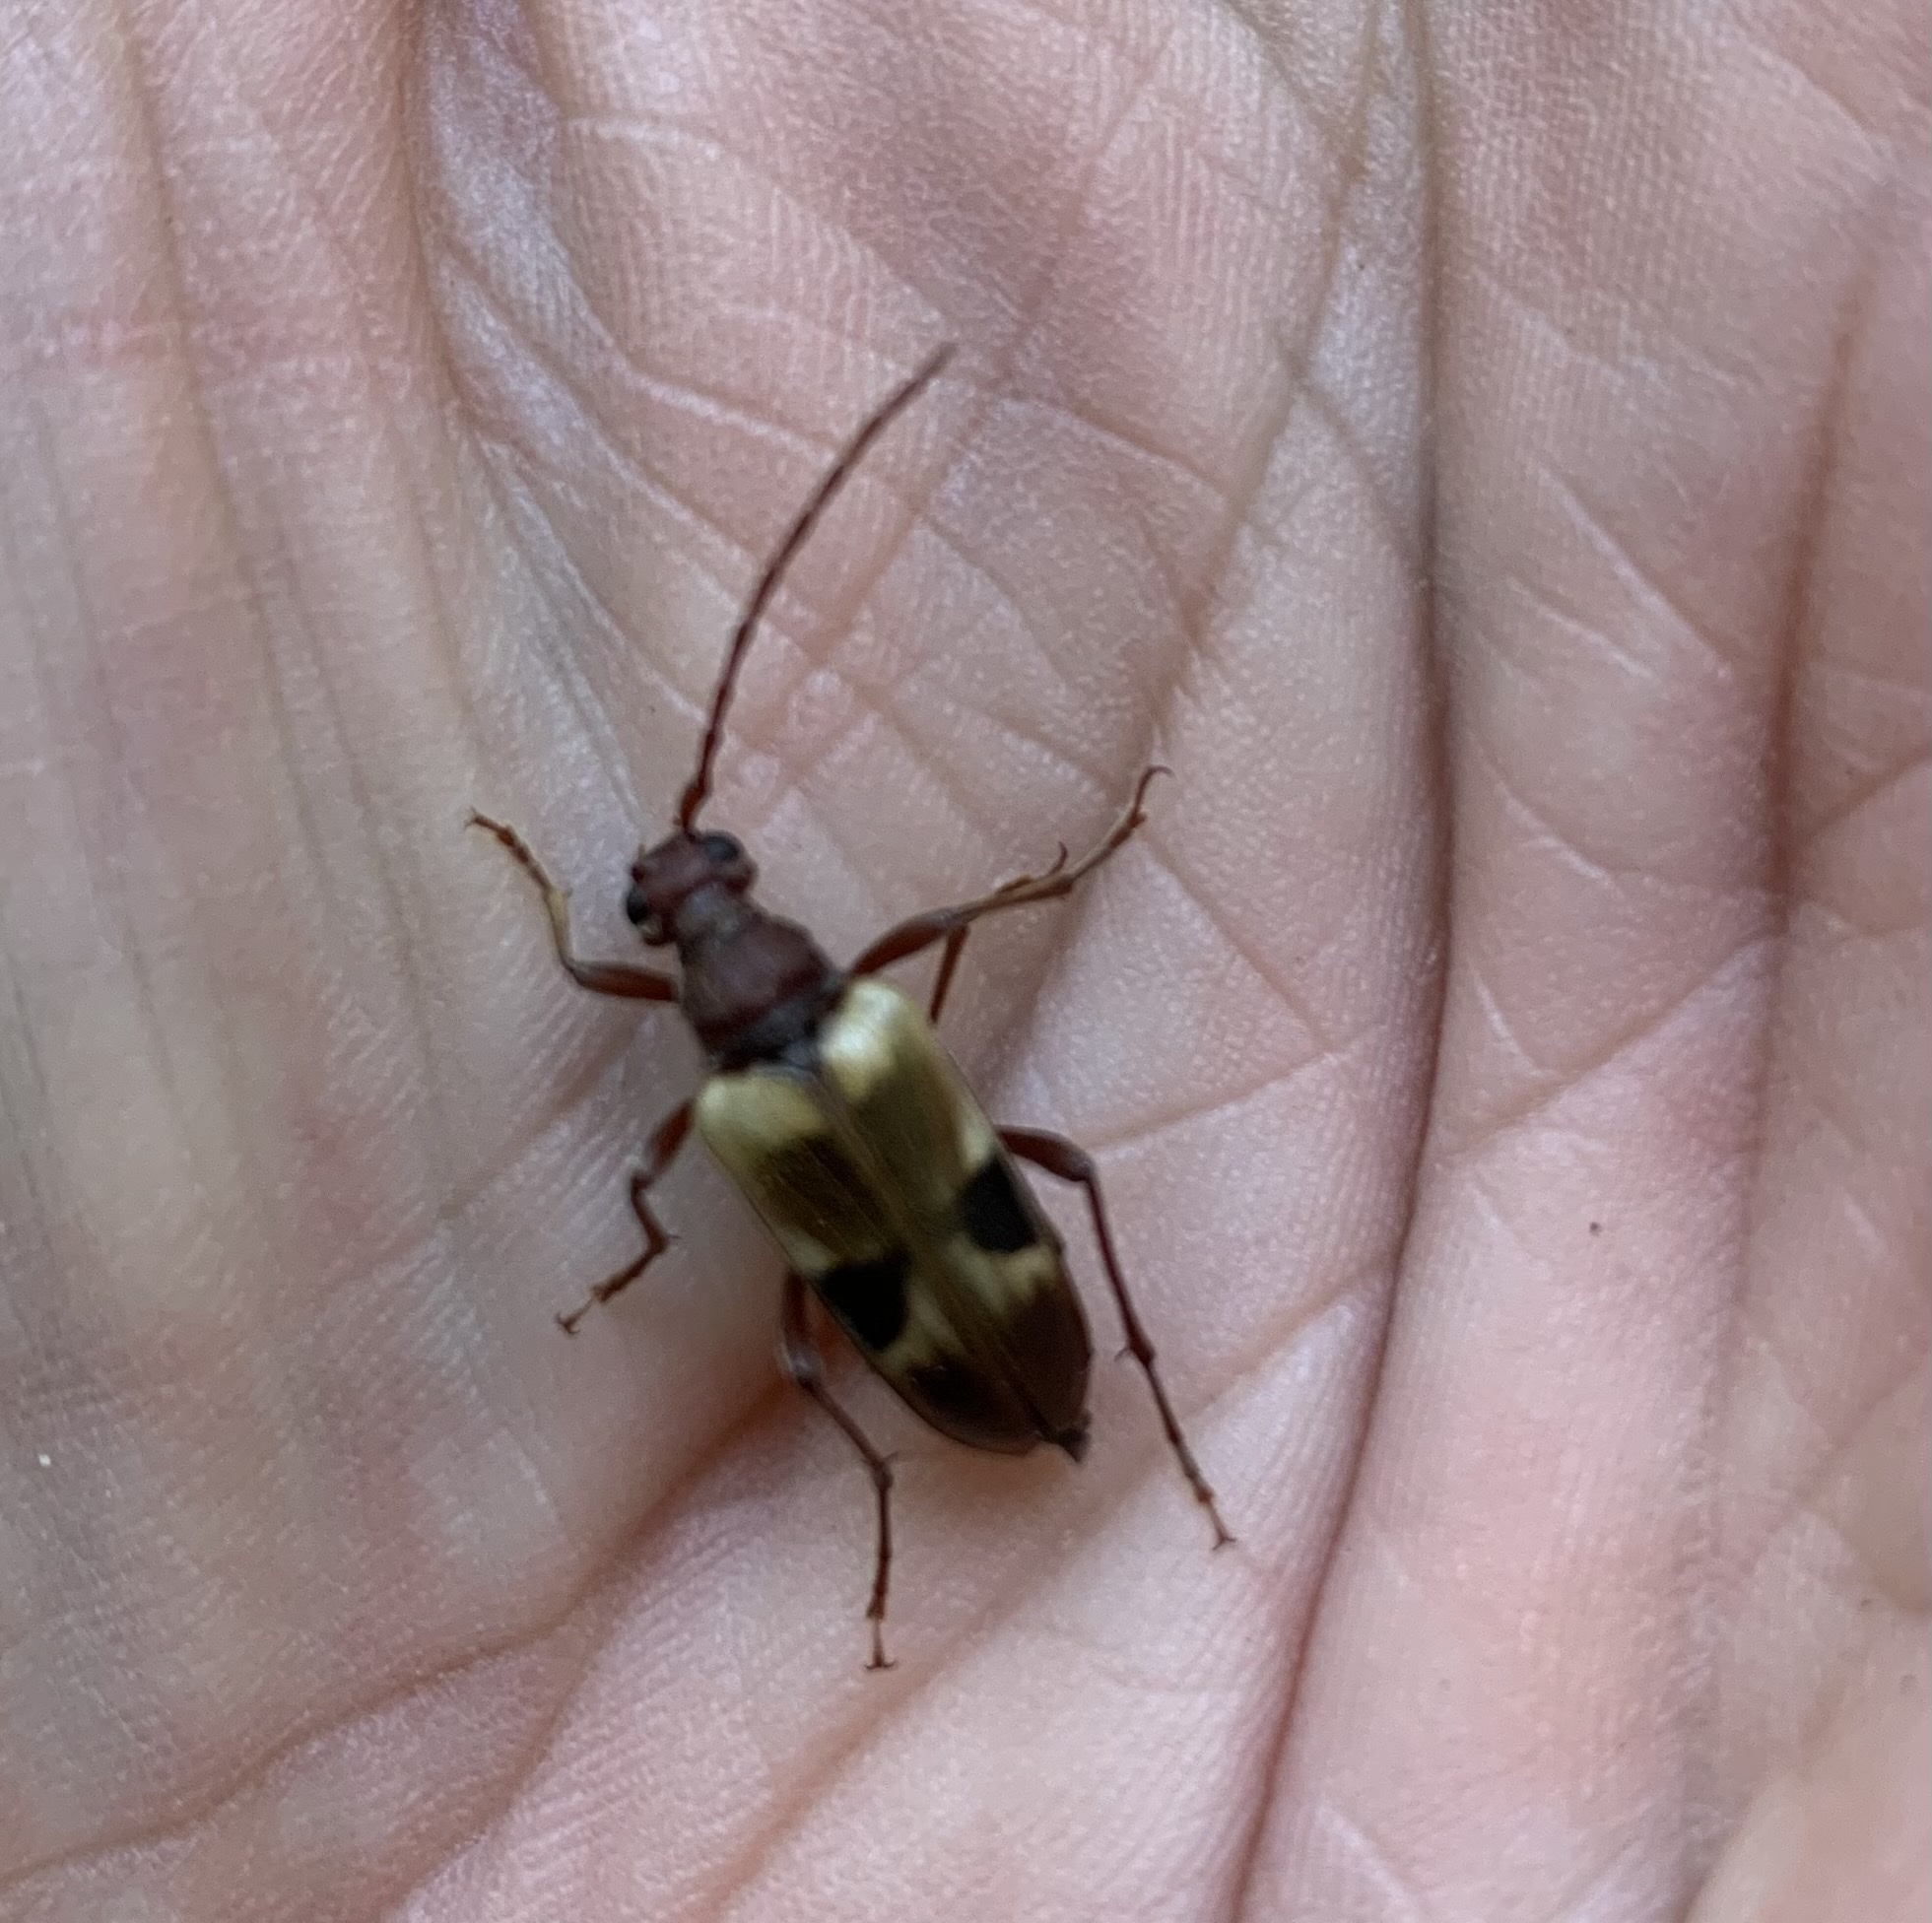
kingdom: Animalia
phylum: Arthropoda
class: Insecta
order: Coleoptera
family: Cerambycidae
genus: Dorcasina
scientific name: Dorcasina matthewsii
